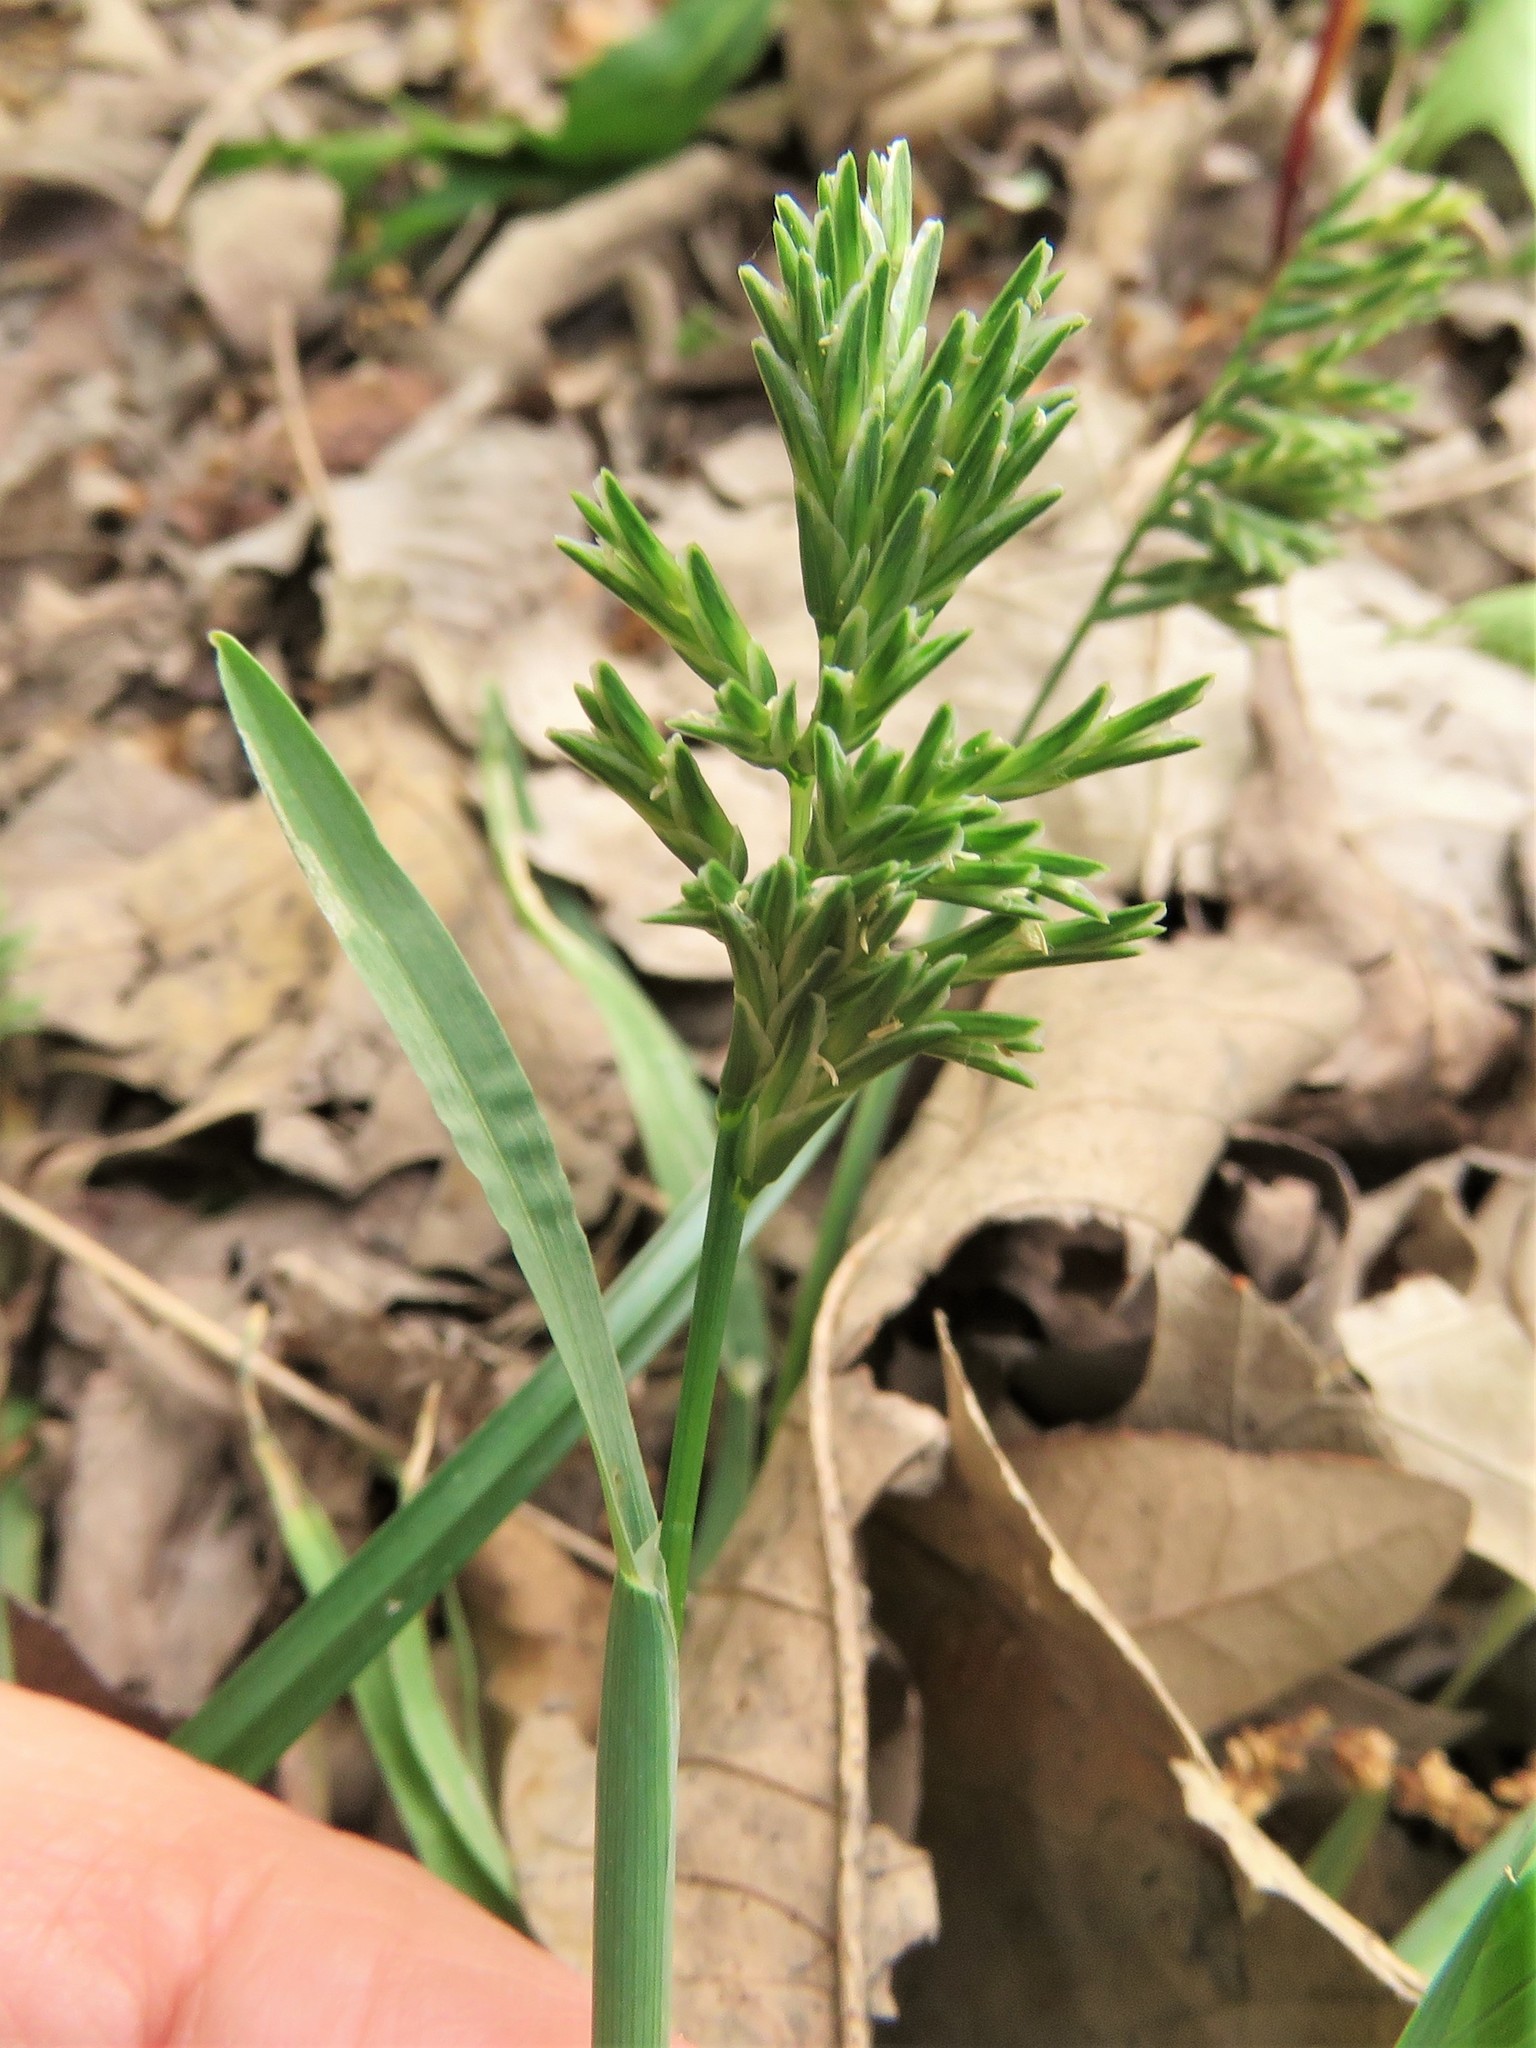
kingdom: Plantae
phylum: Tracheophyta
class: Liliopsida
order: Poales
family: Poaceae
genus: Catapodium
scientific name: Catapodium rigidum
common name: Fern-grass
